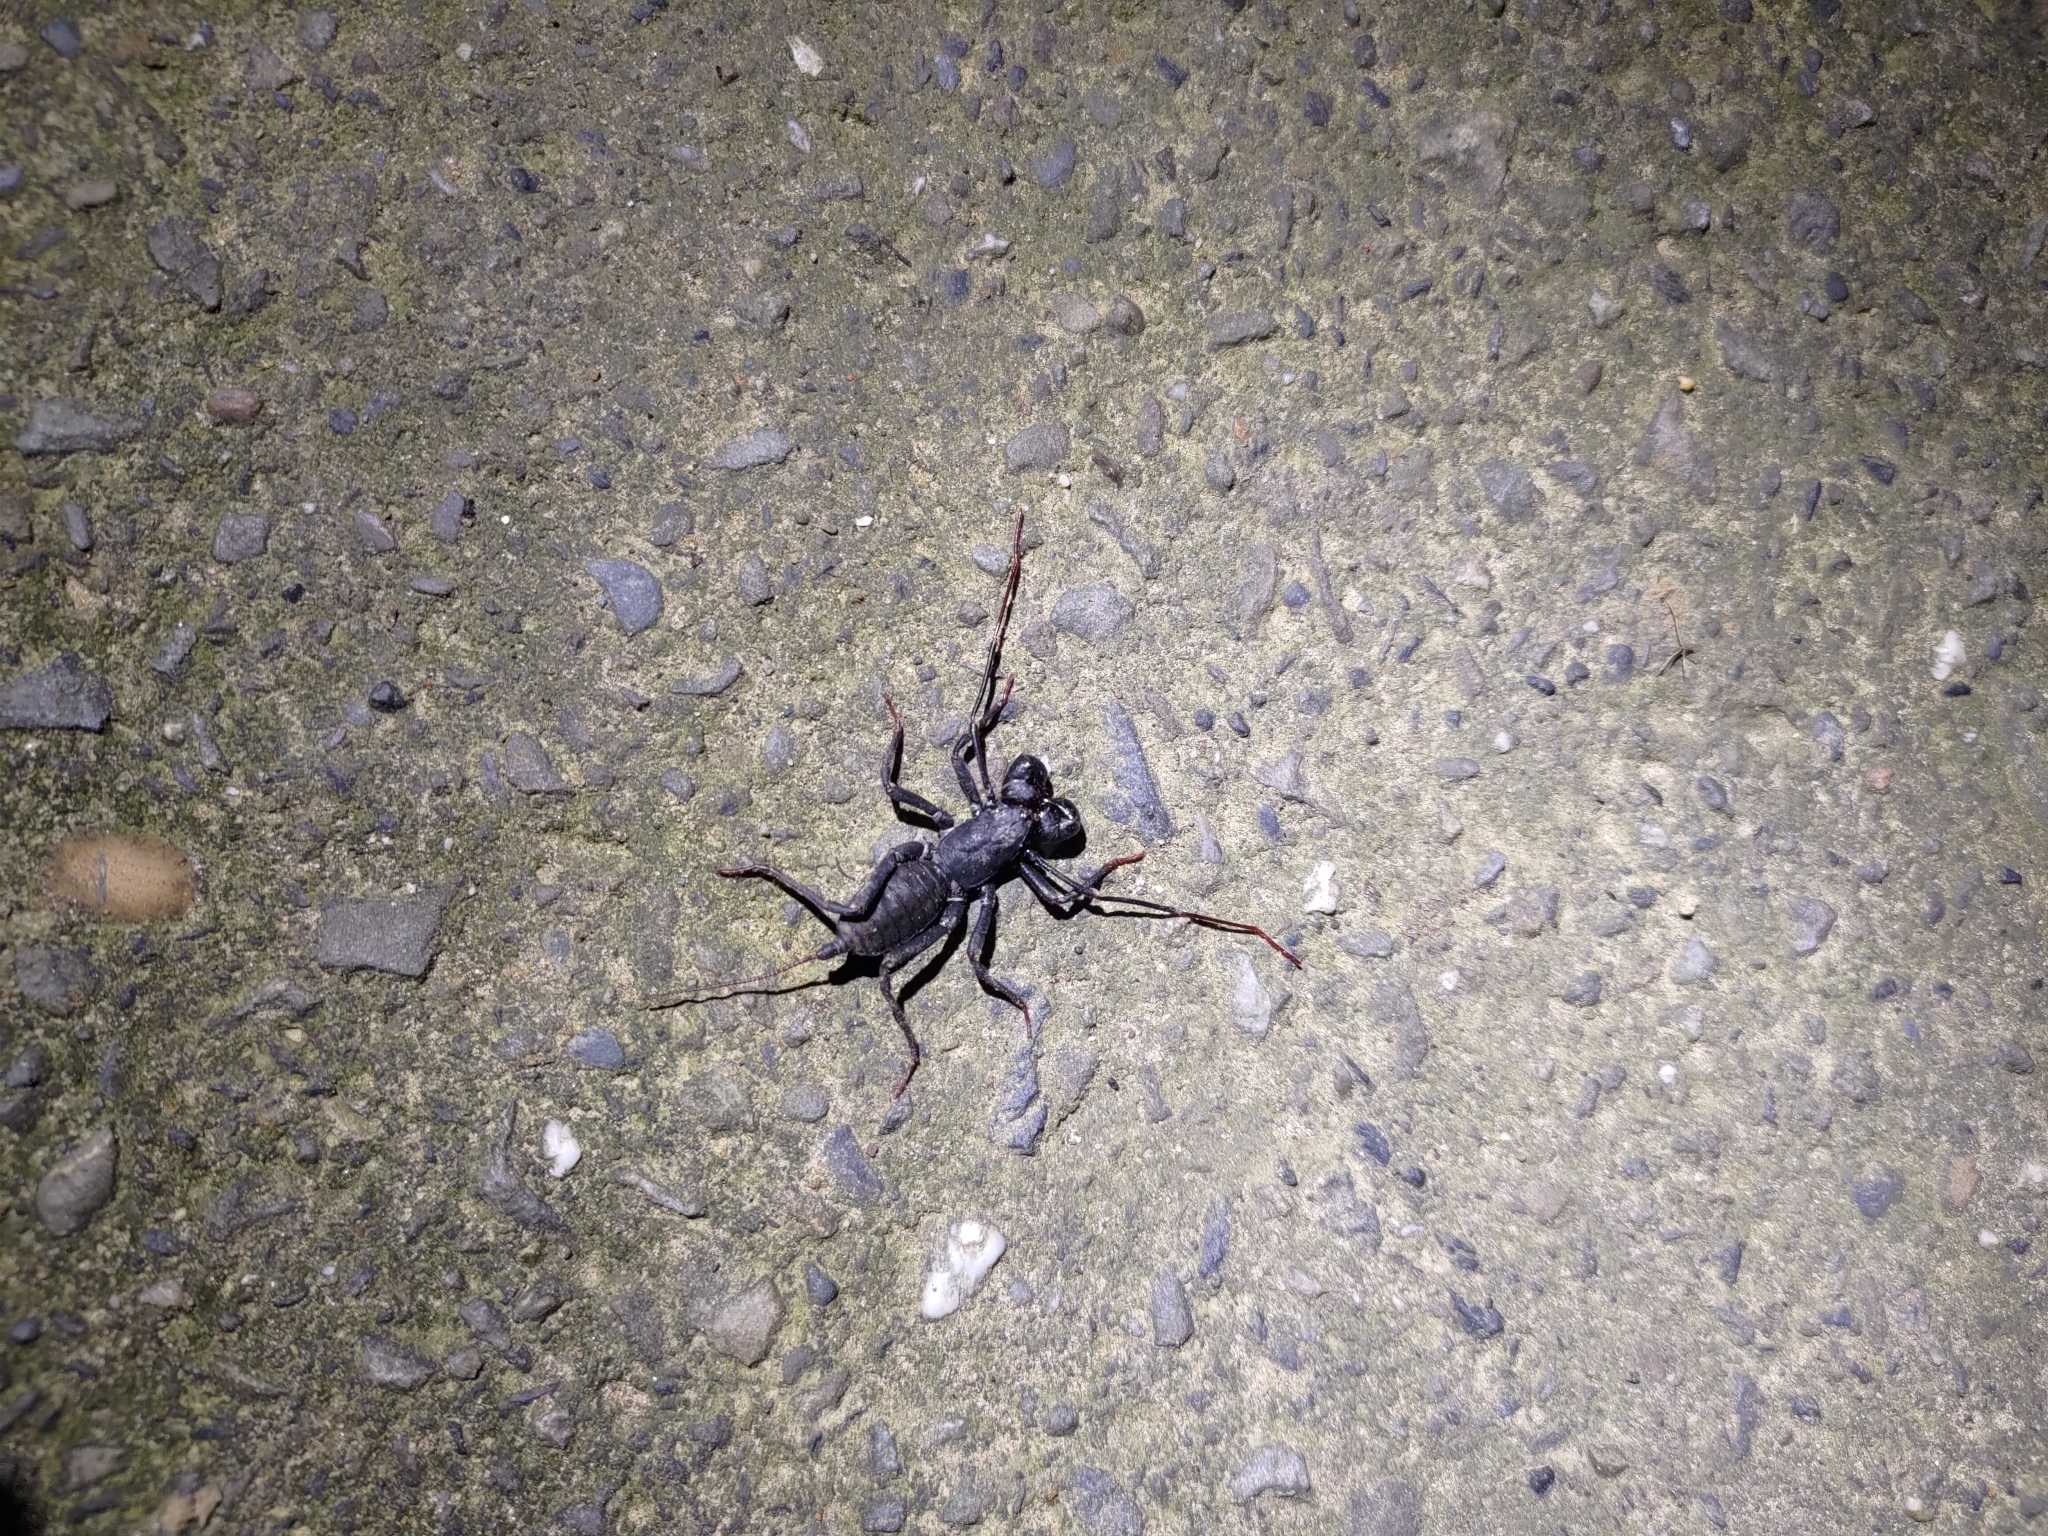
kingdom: Animalia
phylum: Arthropoda
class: Arachnida
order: Uropygi
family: Thelyphonidae
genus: Typopeltis
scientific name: Typopeltis crucifer
